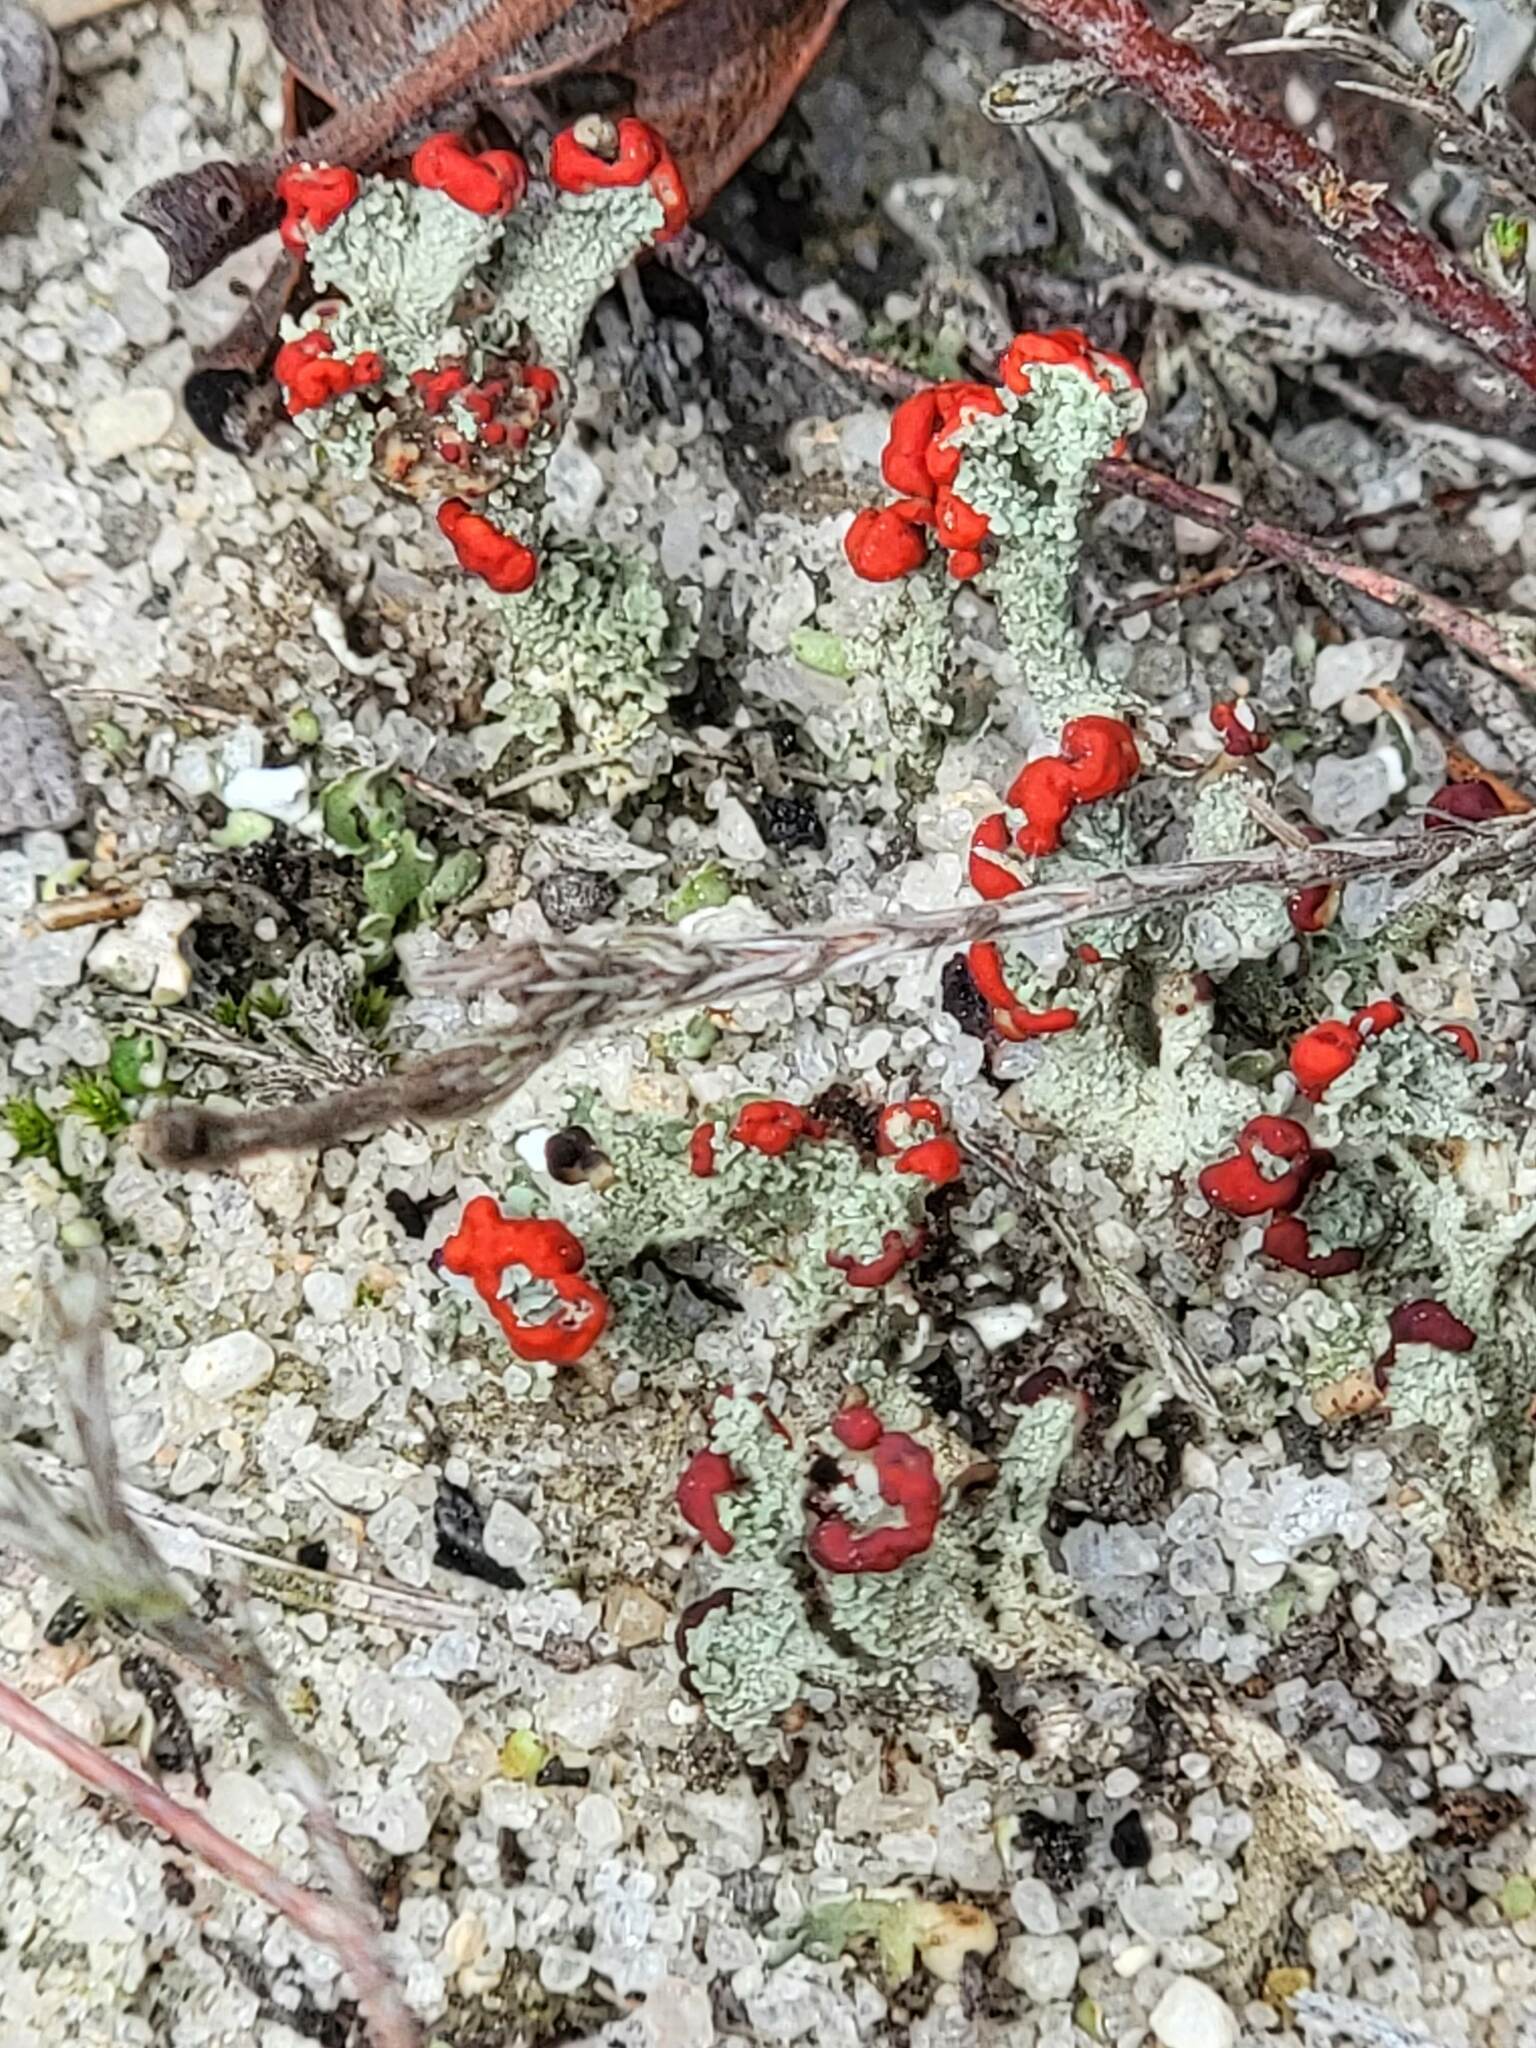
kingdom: Fungi
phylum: Ascomycota
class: Lecanoromycetes
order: Lecanorales
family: Cladoniaceae
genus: Cladonia
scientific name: Cladonia cristatella
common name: British soldier lichen
